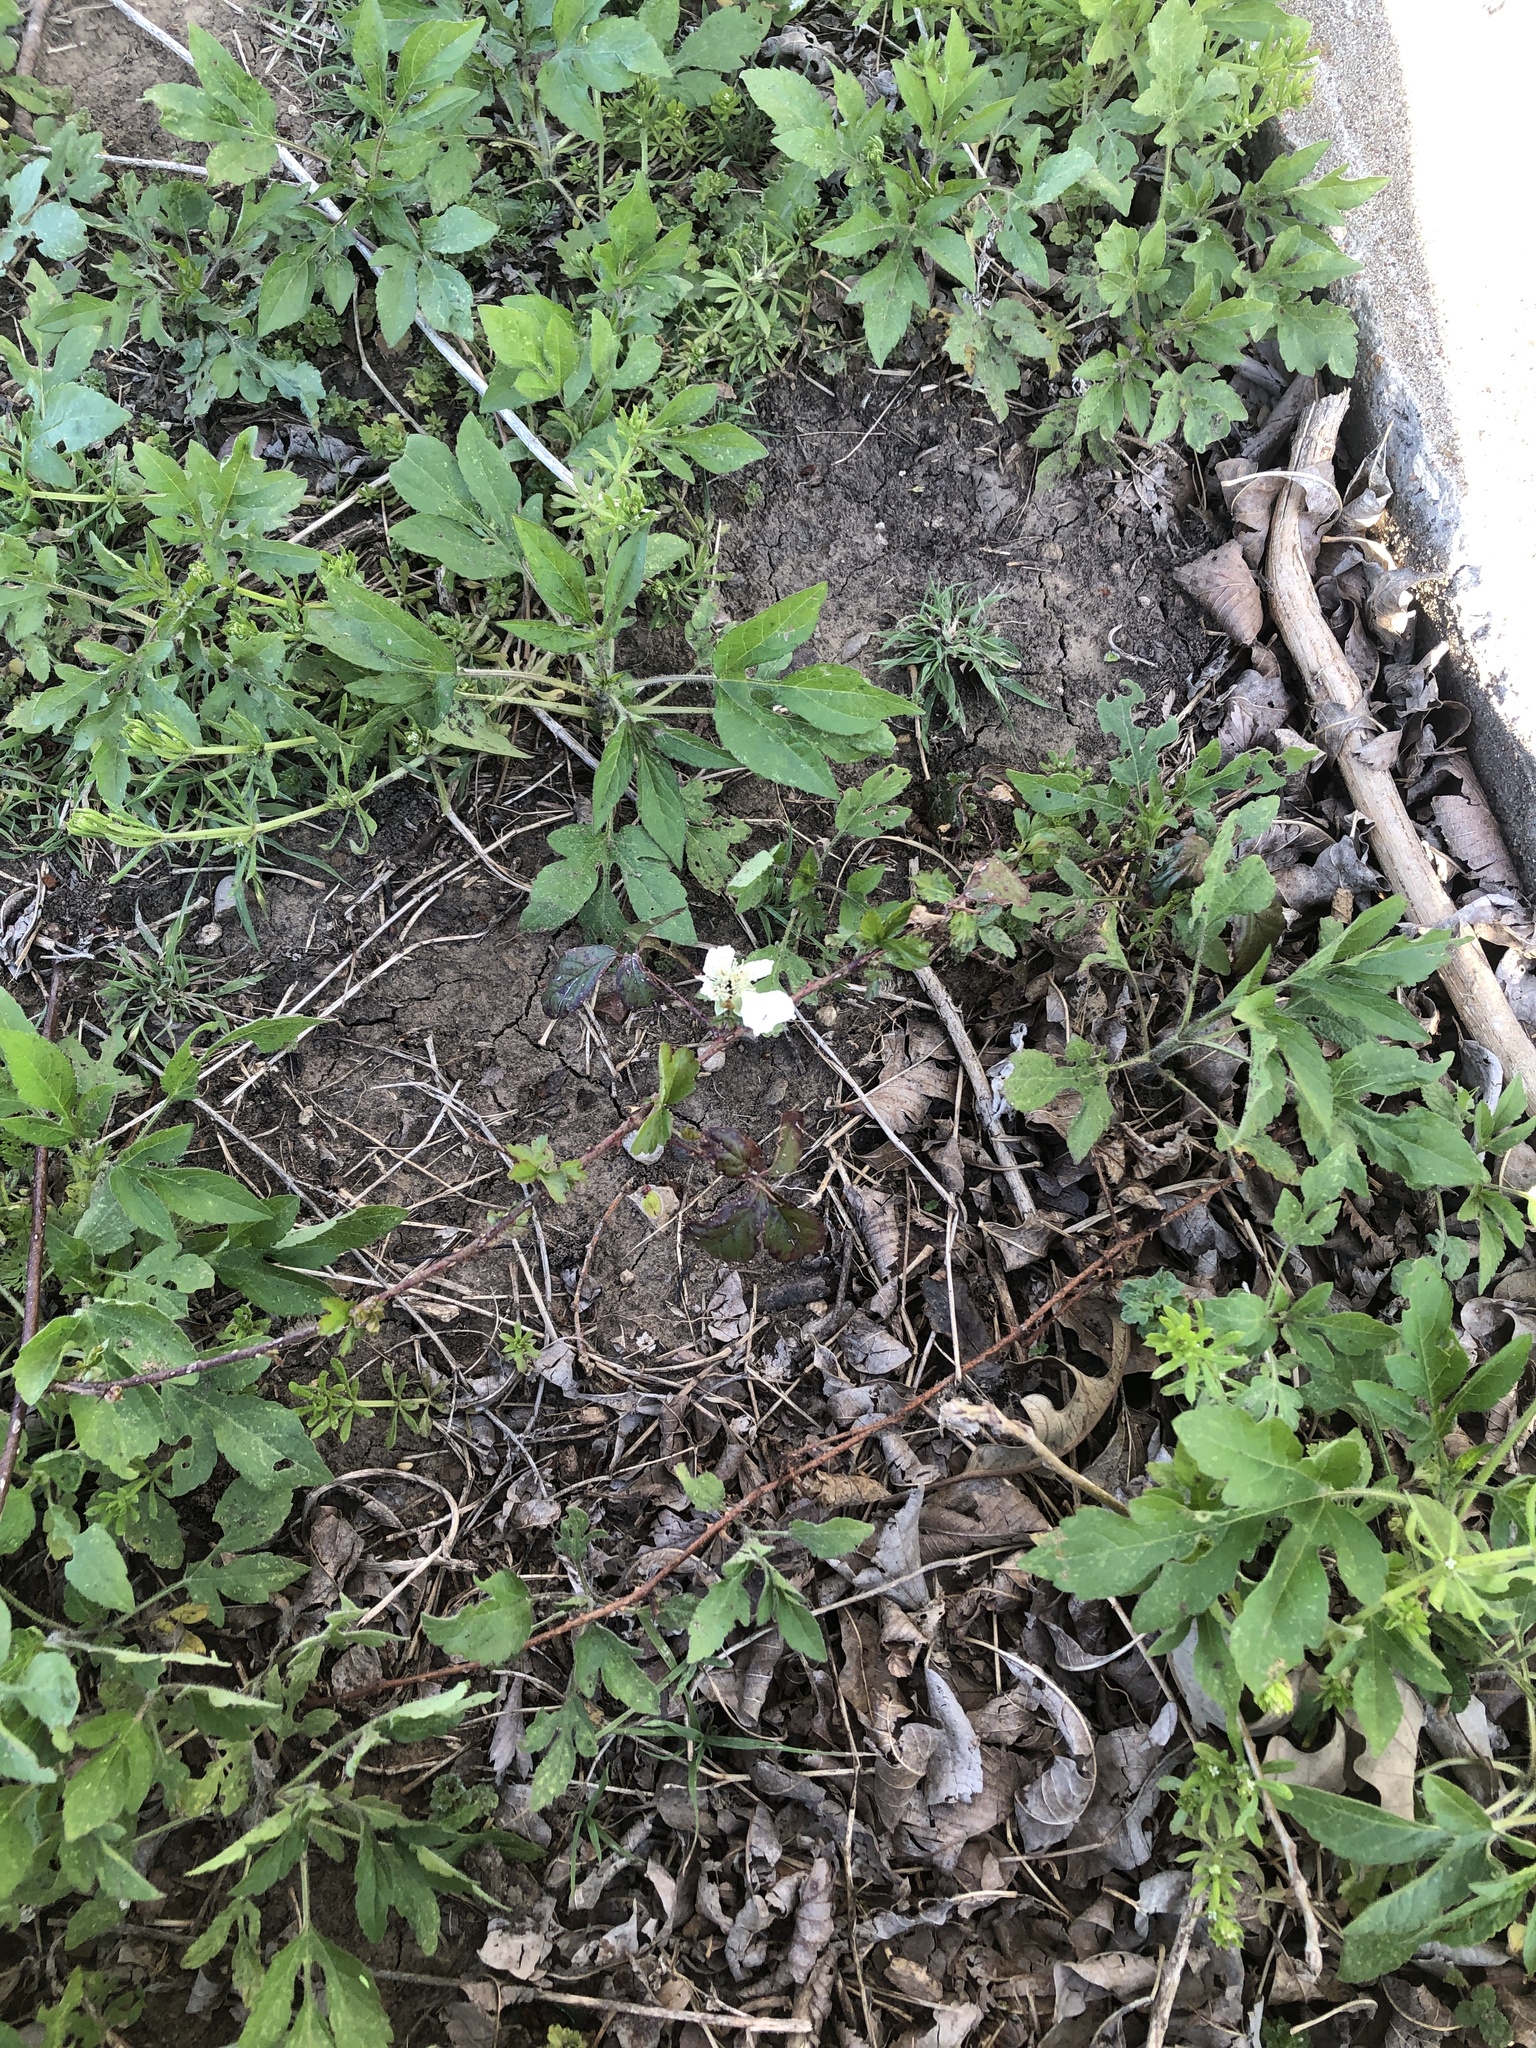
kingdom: Plantae
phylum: Tracheophyta
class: Magnoliopsida
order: Rosales
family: Rosaceae
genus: Rubus
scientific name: Rubus trivialis
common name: Southern dewberry
